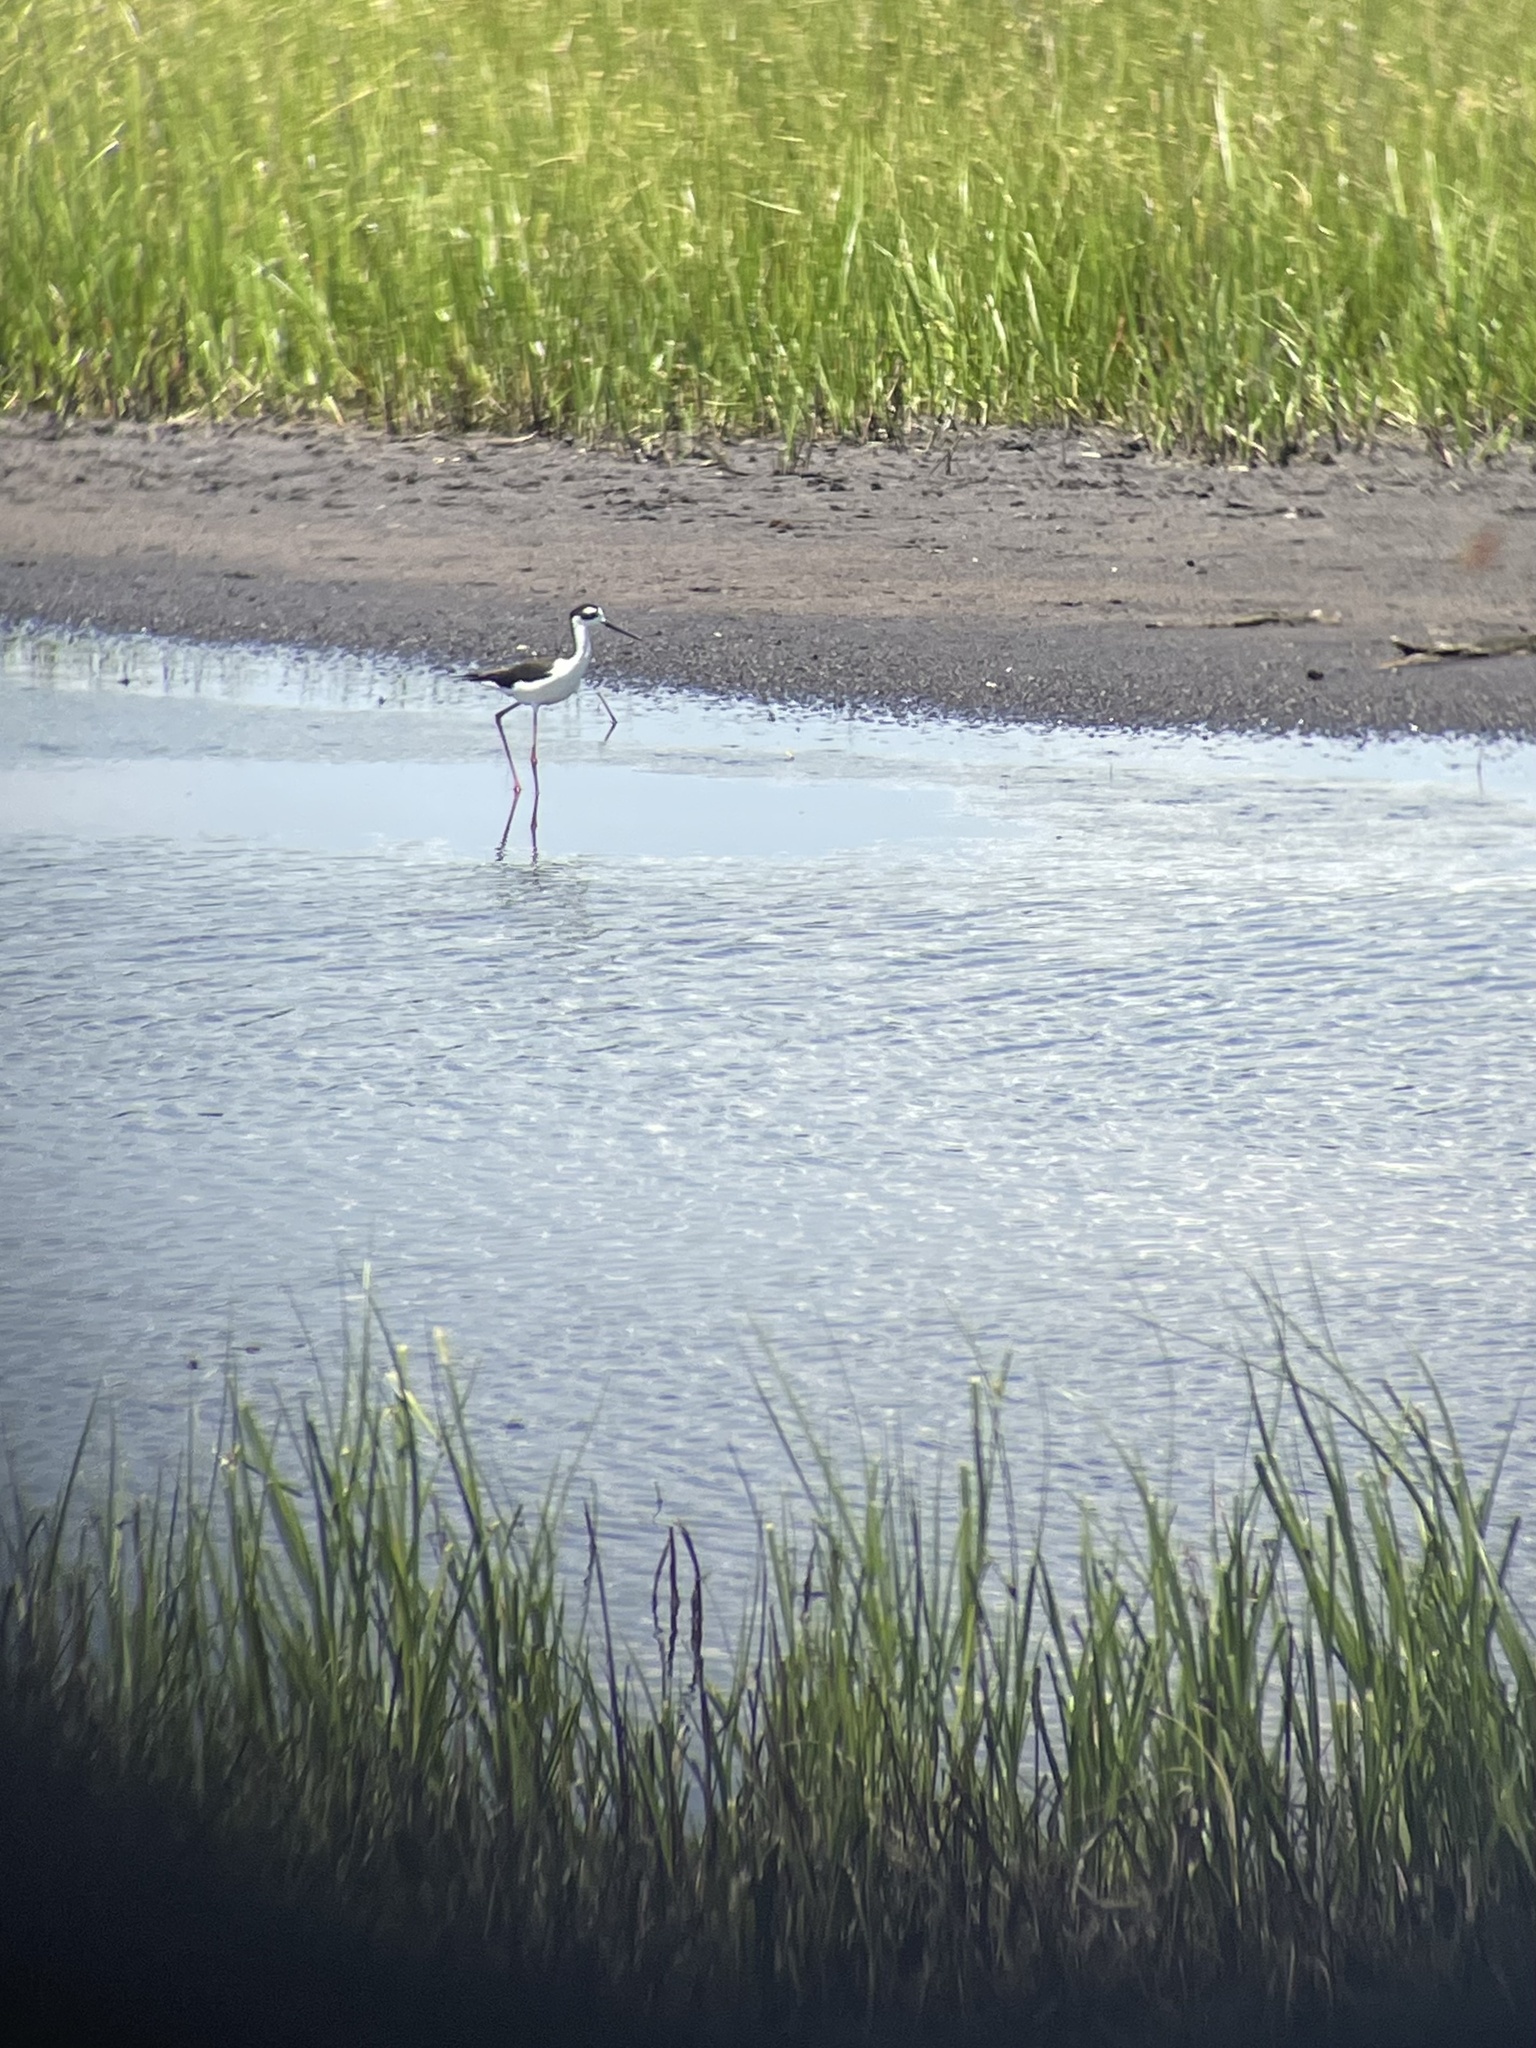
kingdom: Animalia
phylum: Chordata
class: Aves
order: Charadriiformes
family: Recurvirostridae
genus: Himantopus
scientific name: Himantopus mexicanus
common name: Black-necked stilt
